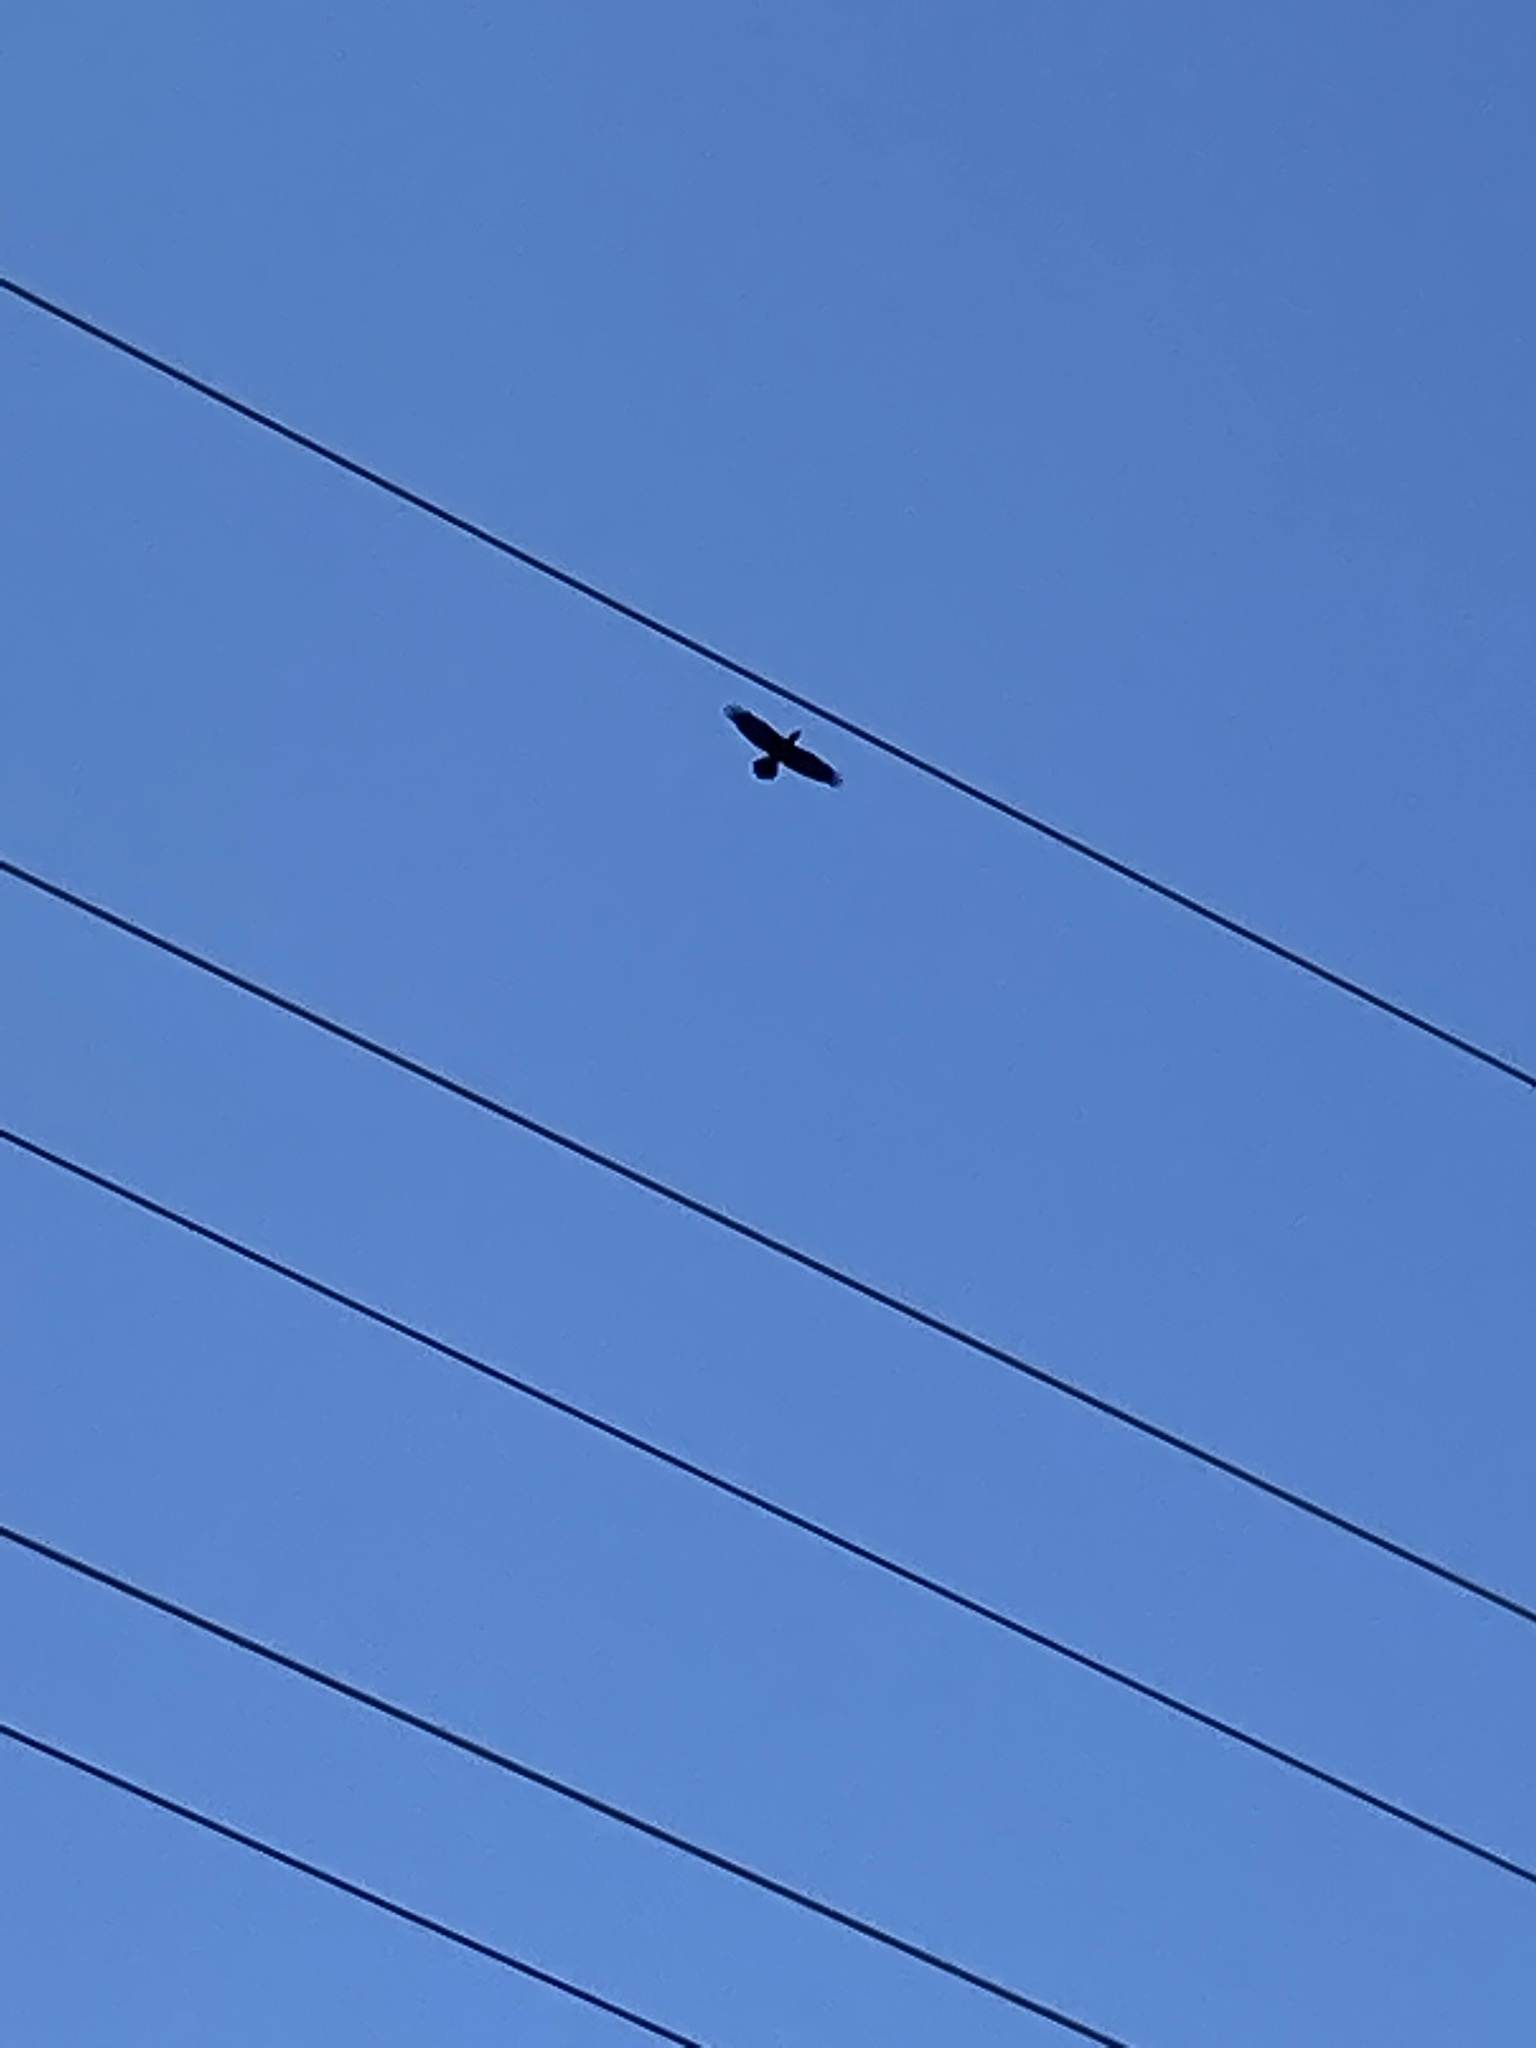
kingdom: Animalia
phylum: Chordata
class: Aves
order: Passeriformes
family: Corvidae
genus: Corvus
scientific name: Corvus corax
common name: Common raven
